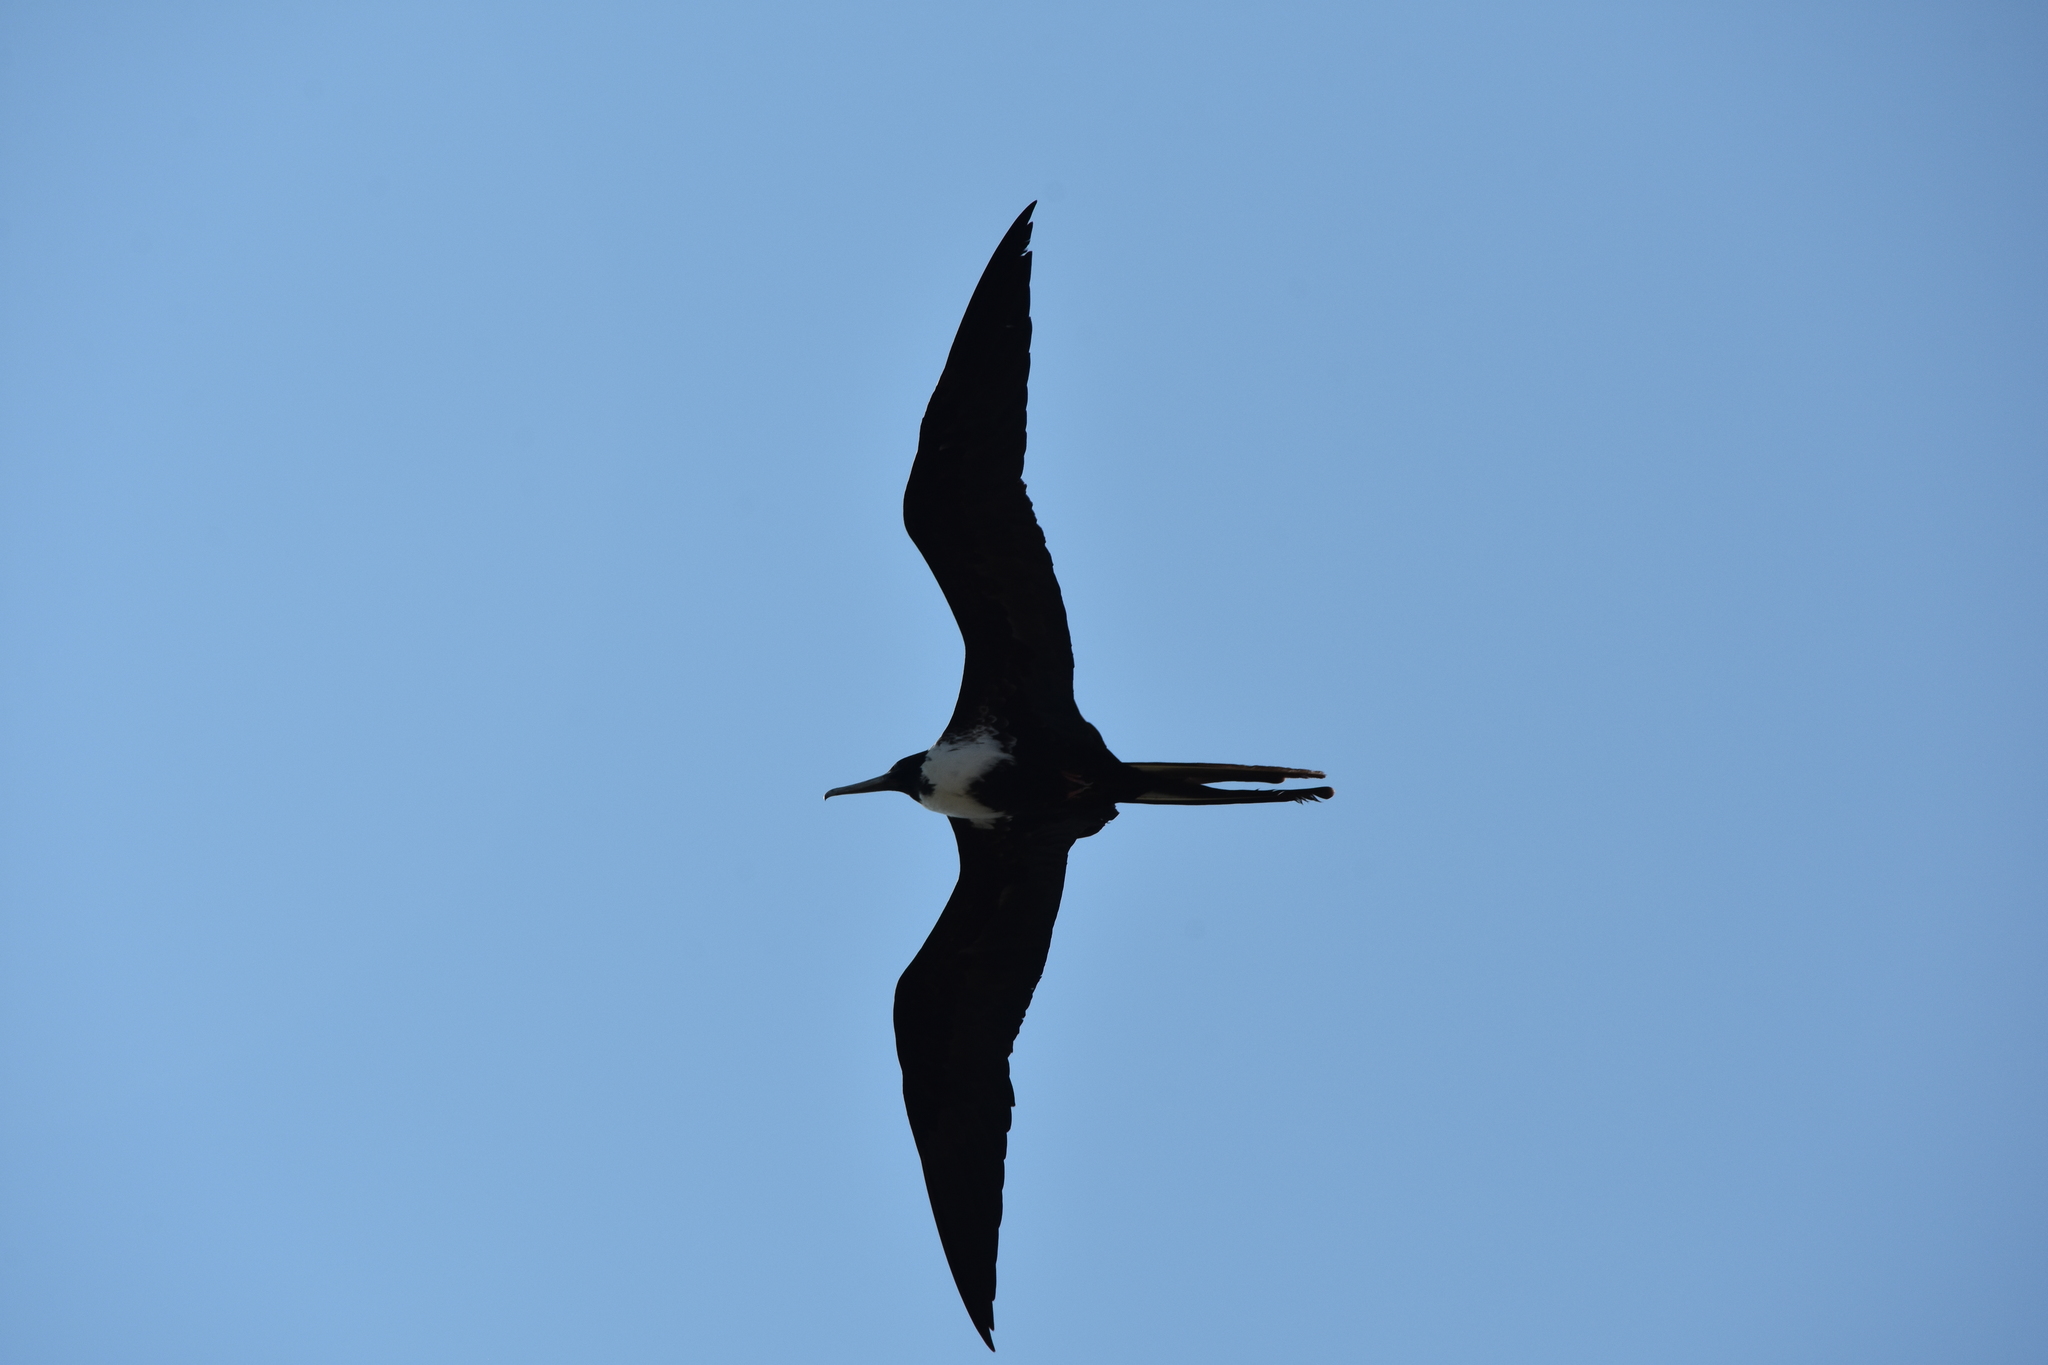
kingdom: Animalia
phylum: Chordata
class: Aves
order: Suliformes
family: Fregatidae
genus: Fregata
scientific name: Fregata magnificens
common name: Magnificent frigatebird
